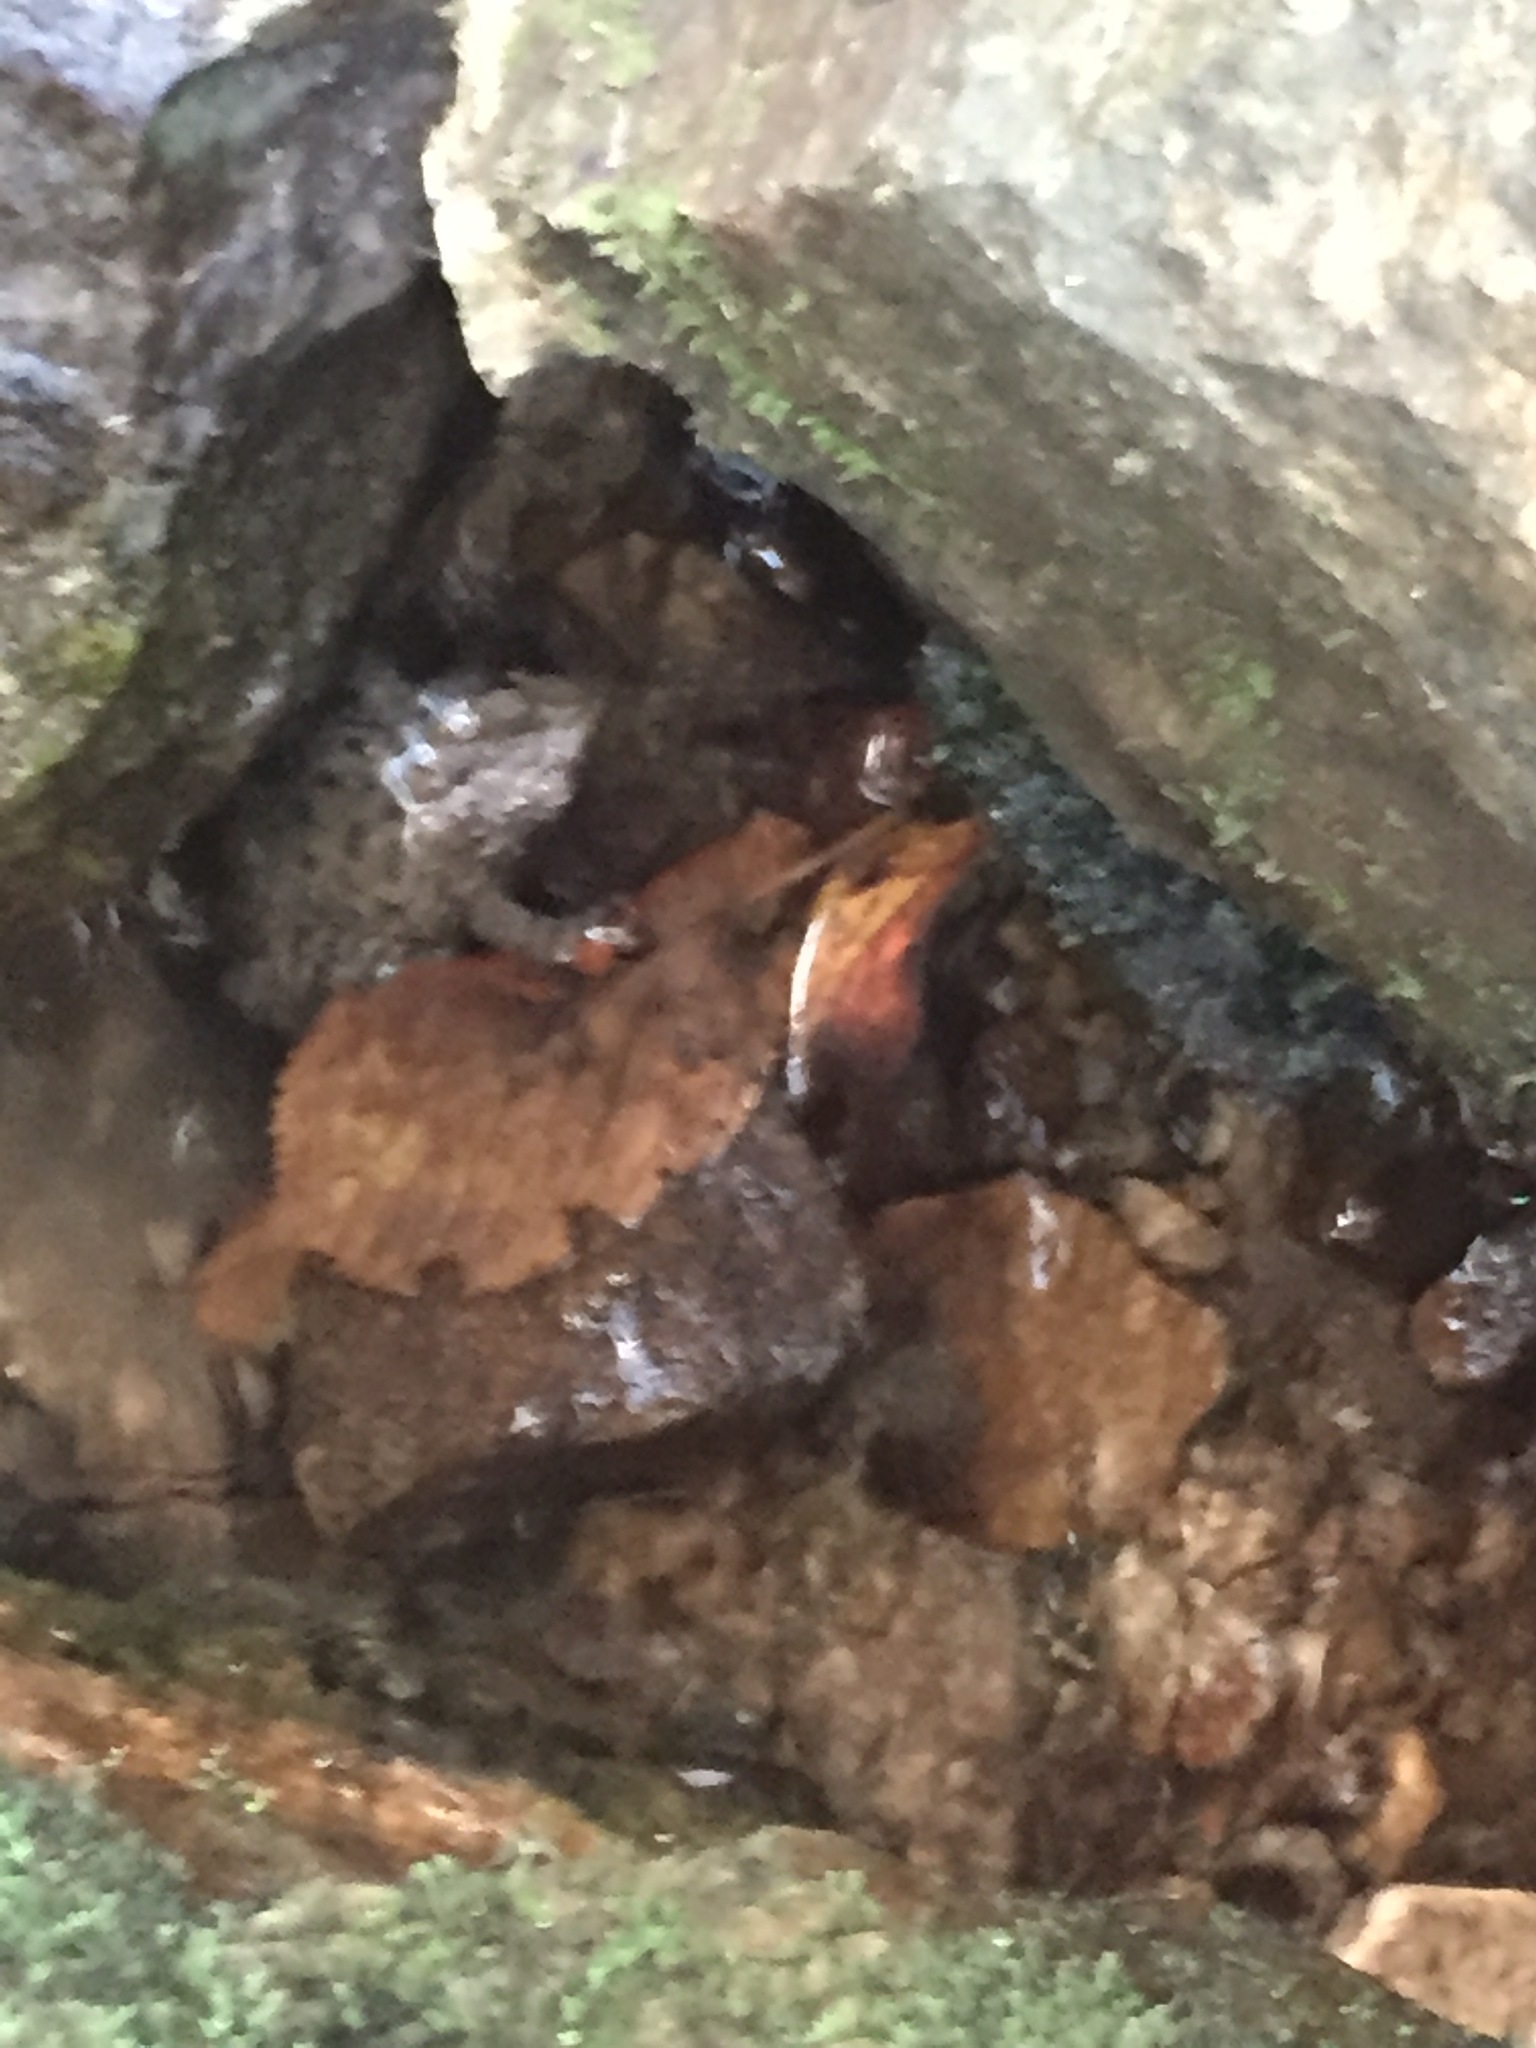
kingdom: Animalia
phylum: Chordata
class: Amphibia
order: Anura
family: Ranidae
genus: Glandirana
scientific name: Glandirana emeljanovi
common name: Northeast china rough-skinned frog
